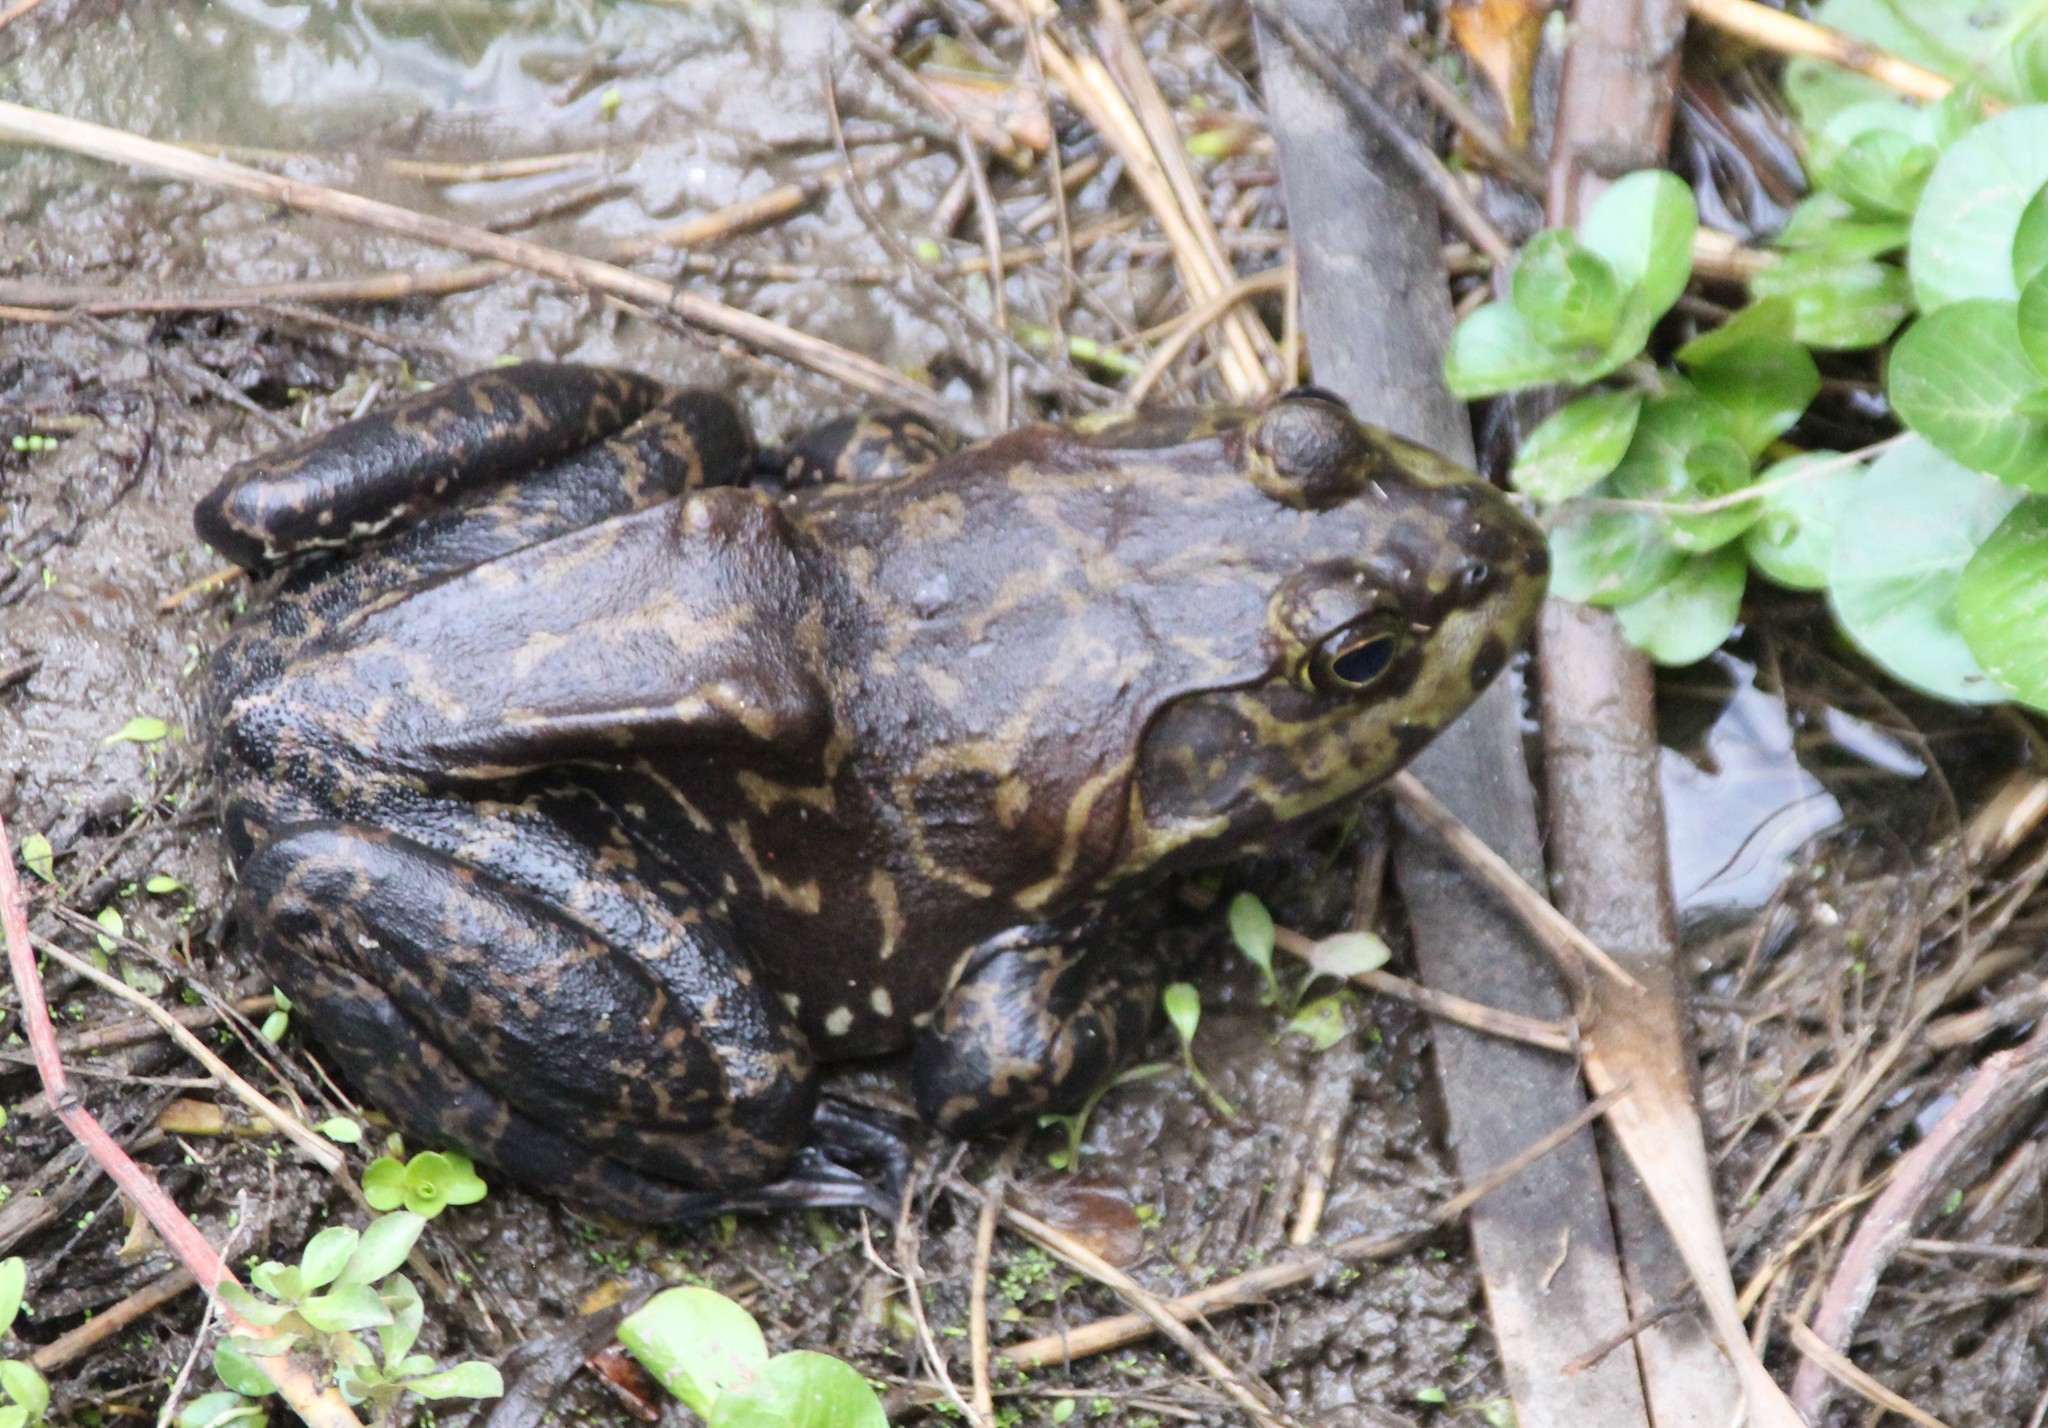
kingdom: Animalia
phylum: Chordata
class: Amphibia
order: Anura
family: Ranidae
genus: Lithobates
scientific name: Lithobates catesbeianus
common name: American bullfrog
